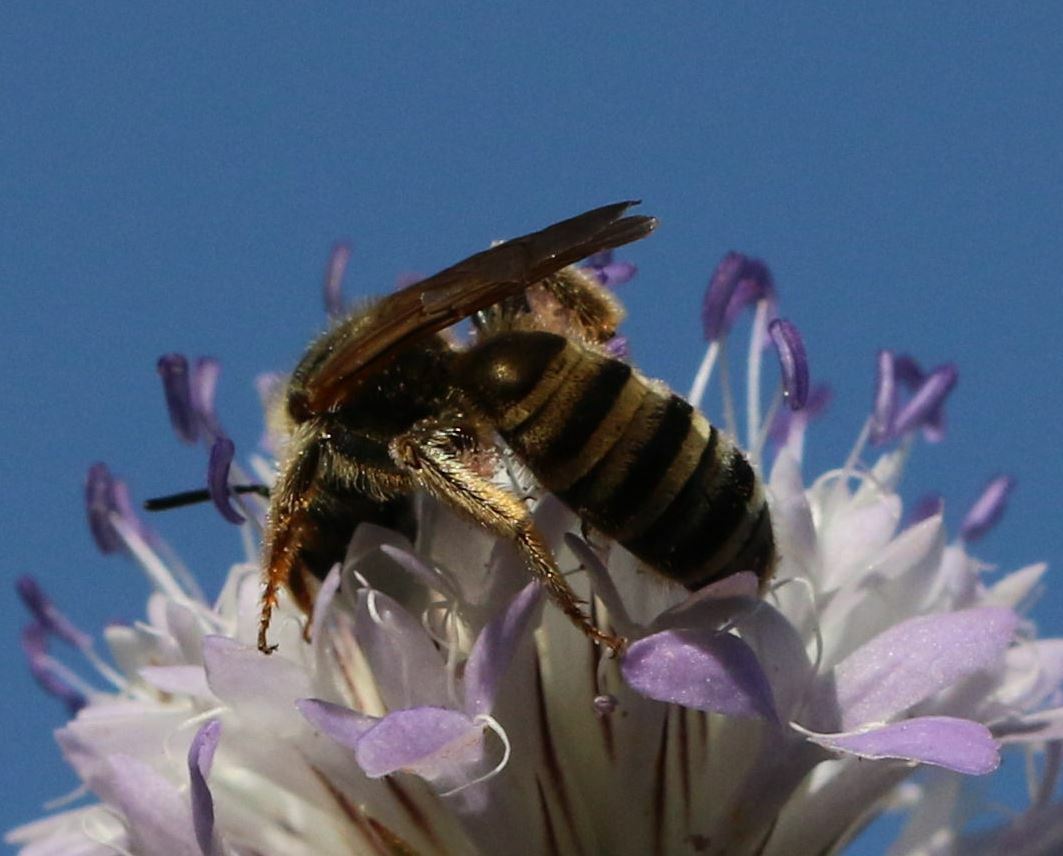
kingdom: Animalia
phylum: Arthropoda
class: Insecta
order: Hymenoptera
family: Halictidae
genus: Halictus
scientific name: Halictus scabiosae
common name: Great banded furrow bee
